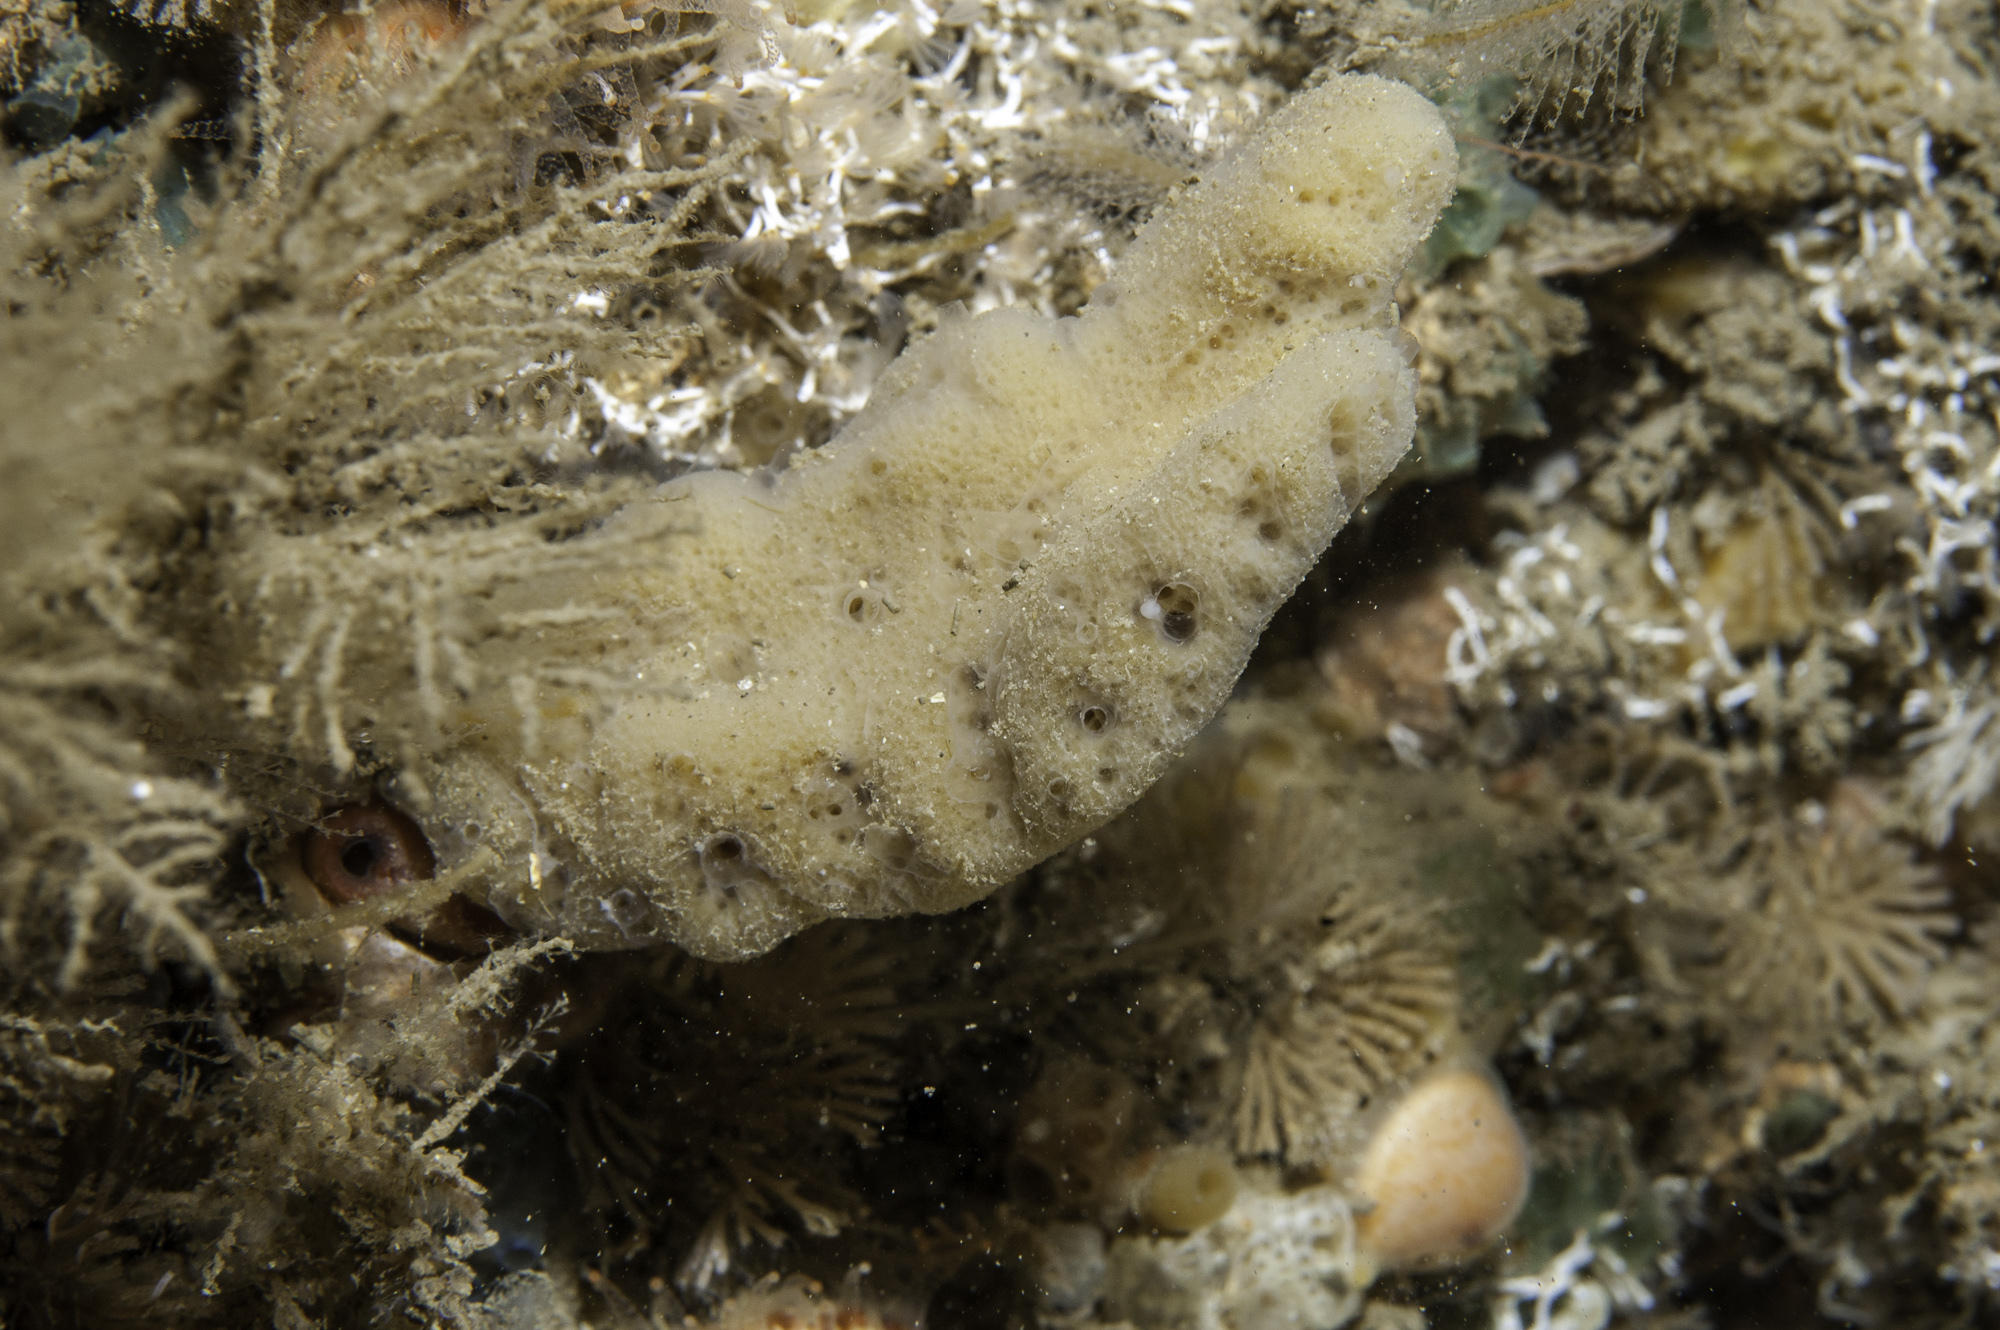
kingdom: Animalia
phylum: Porifera
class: Demospongiae
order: Dendroceratida
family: Dictyodendrillidae
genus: Spongionella
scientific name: Spongionella pulchella
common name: Gorgeous horny sponge
